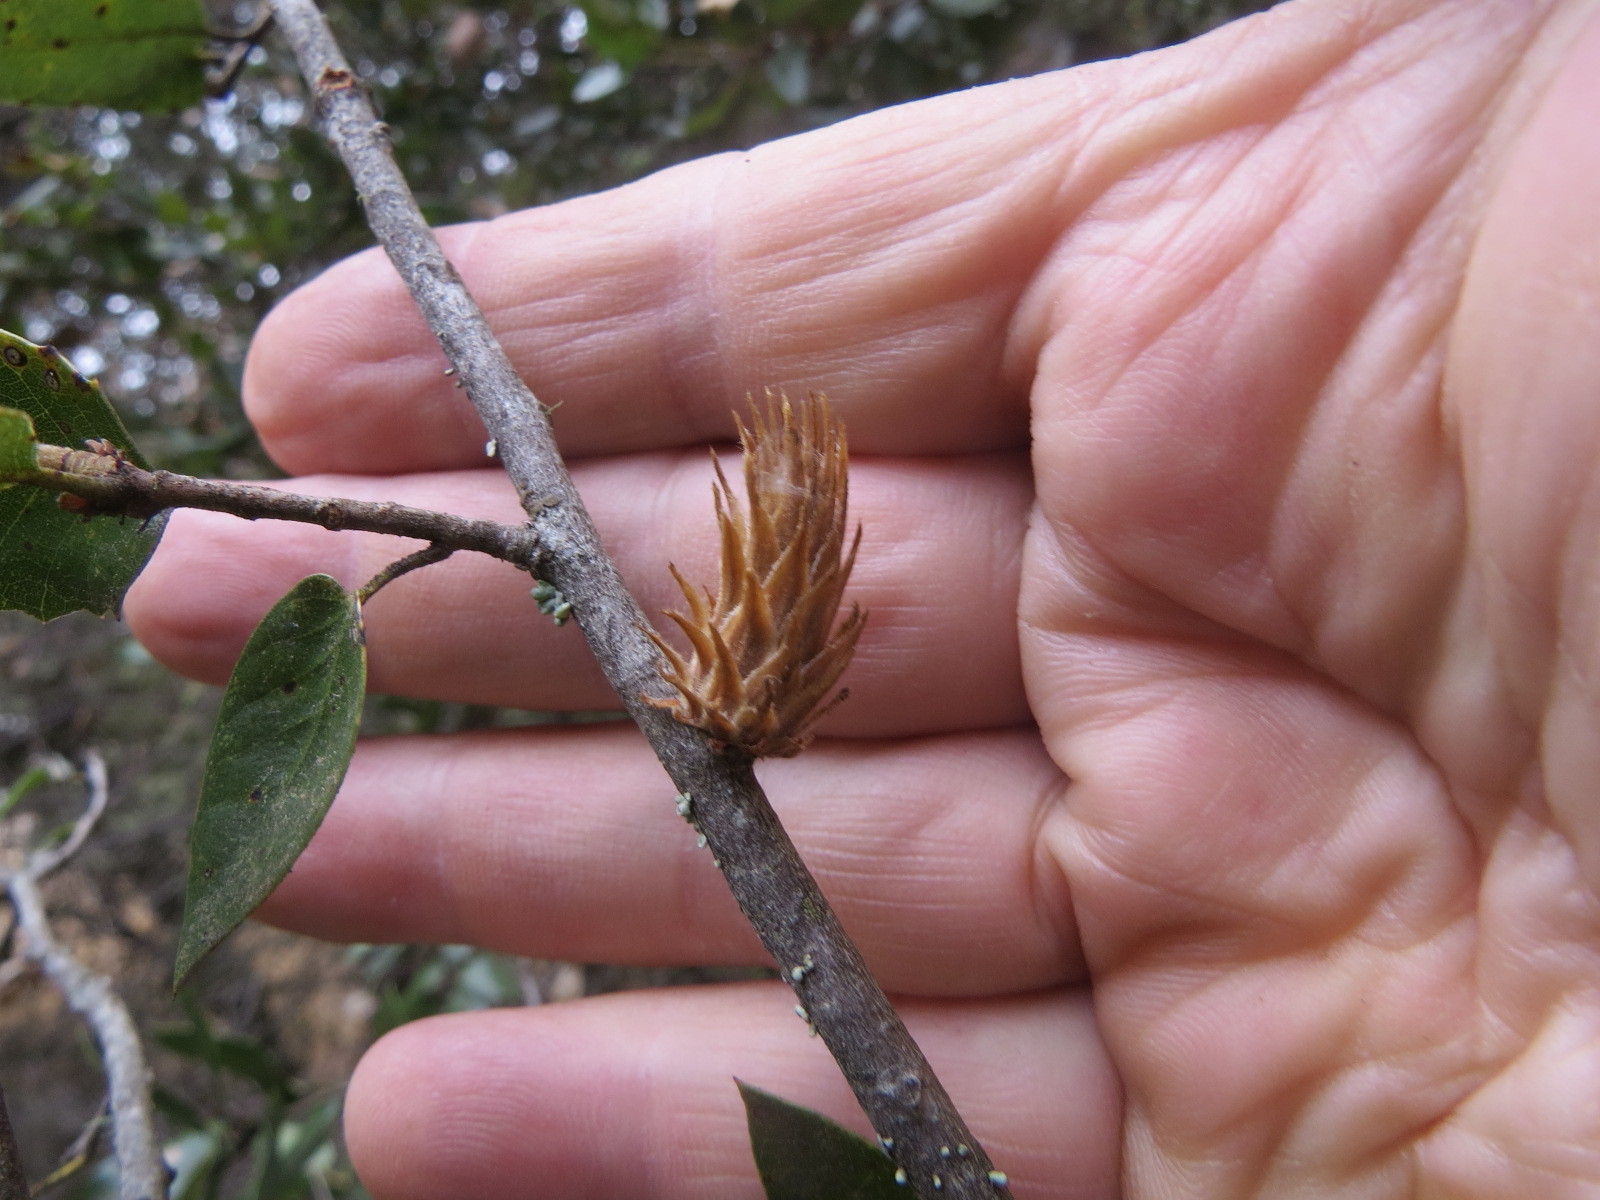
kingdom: Animalia
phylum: Arthropoda
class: Insecta
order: Hymenoptera
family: Cynipidae
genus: Andricus
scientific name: Andricus
